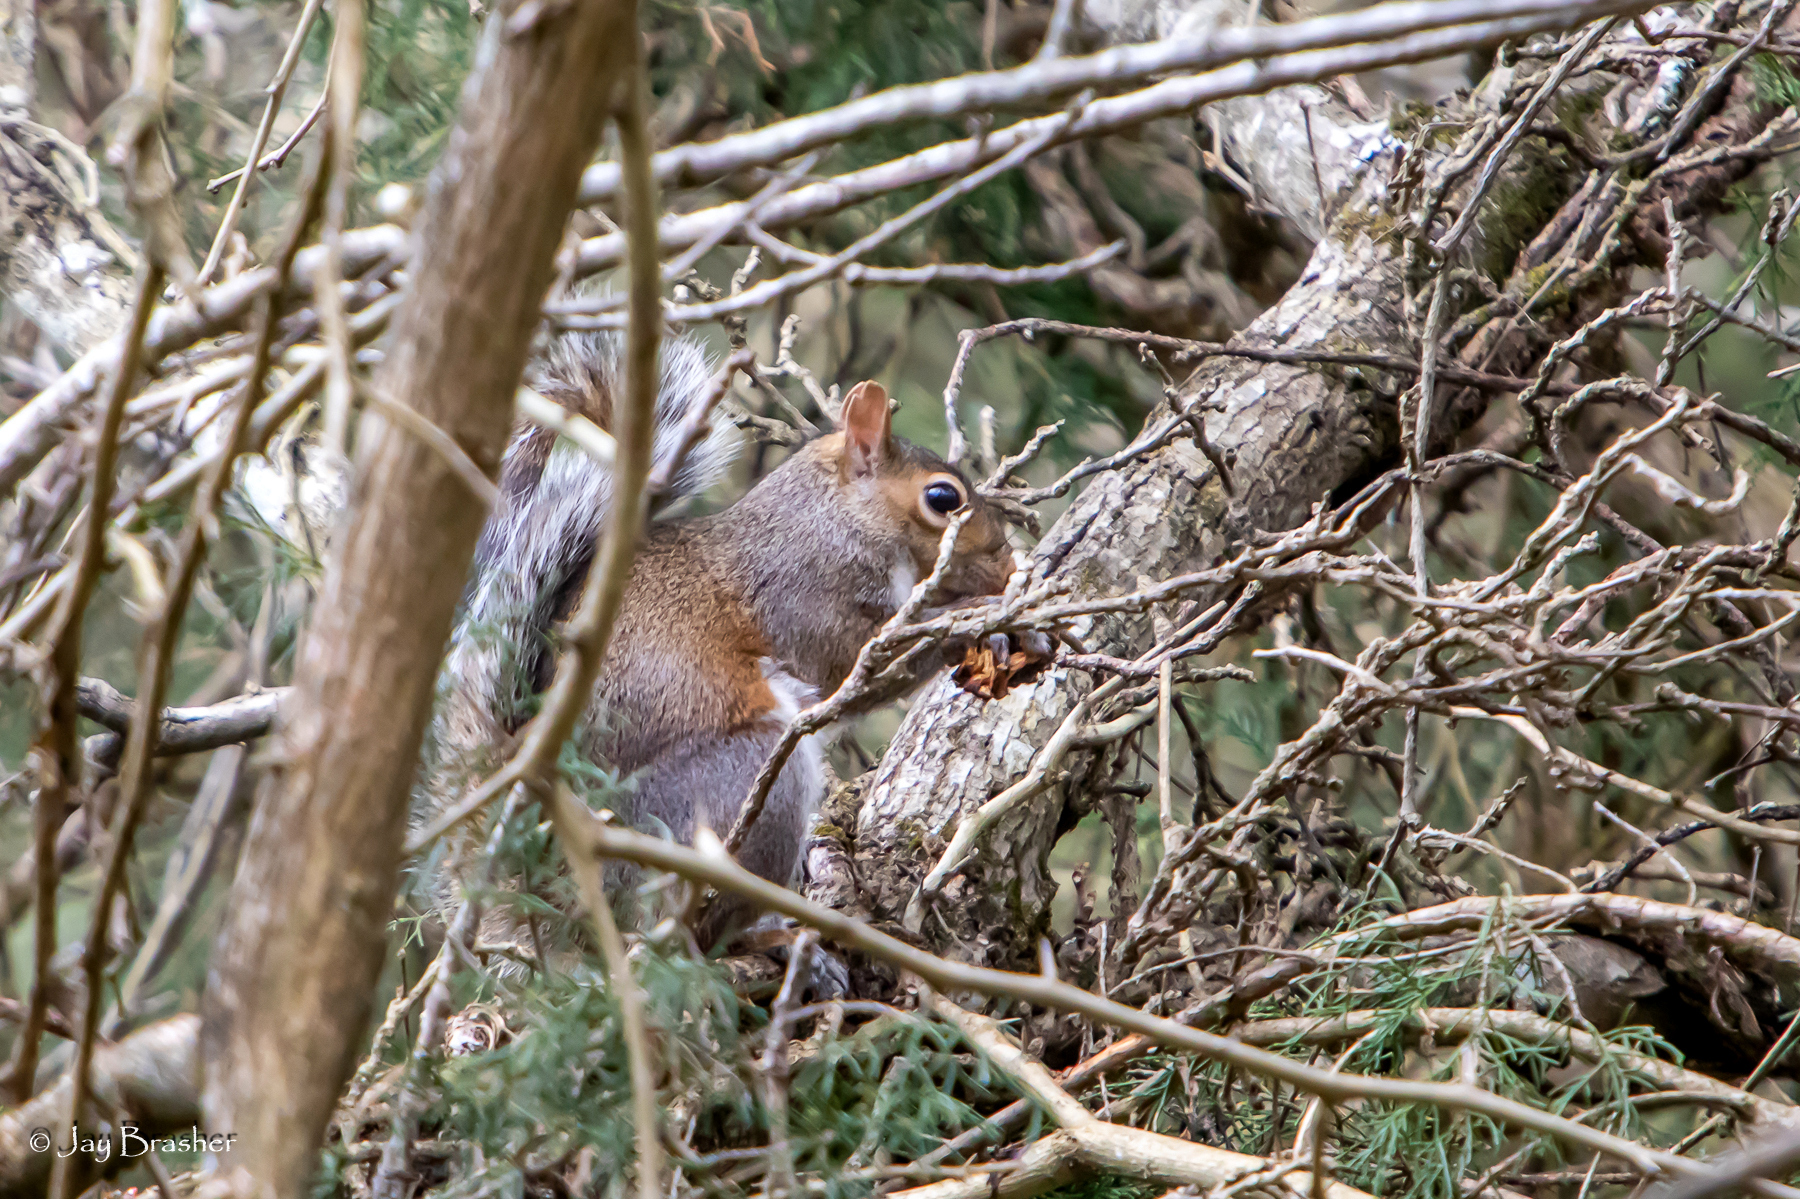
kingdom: Animalia
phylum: Chordata
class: Mammalia
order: Rodentia
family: Sciuridae
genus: Sciurus
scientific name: Sciurus carolinensis
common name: Eastern gray squirrel
